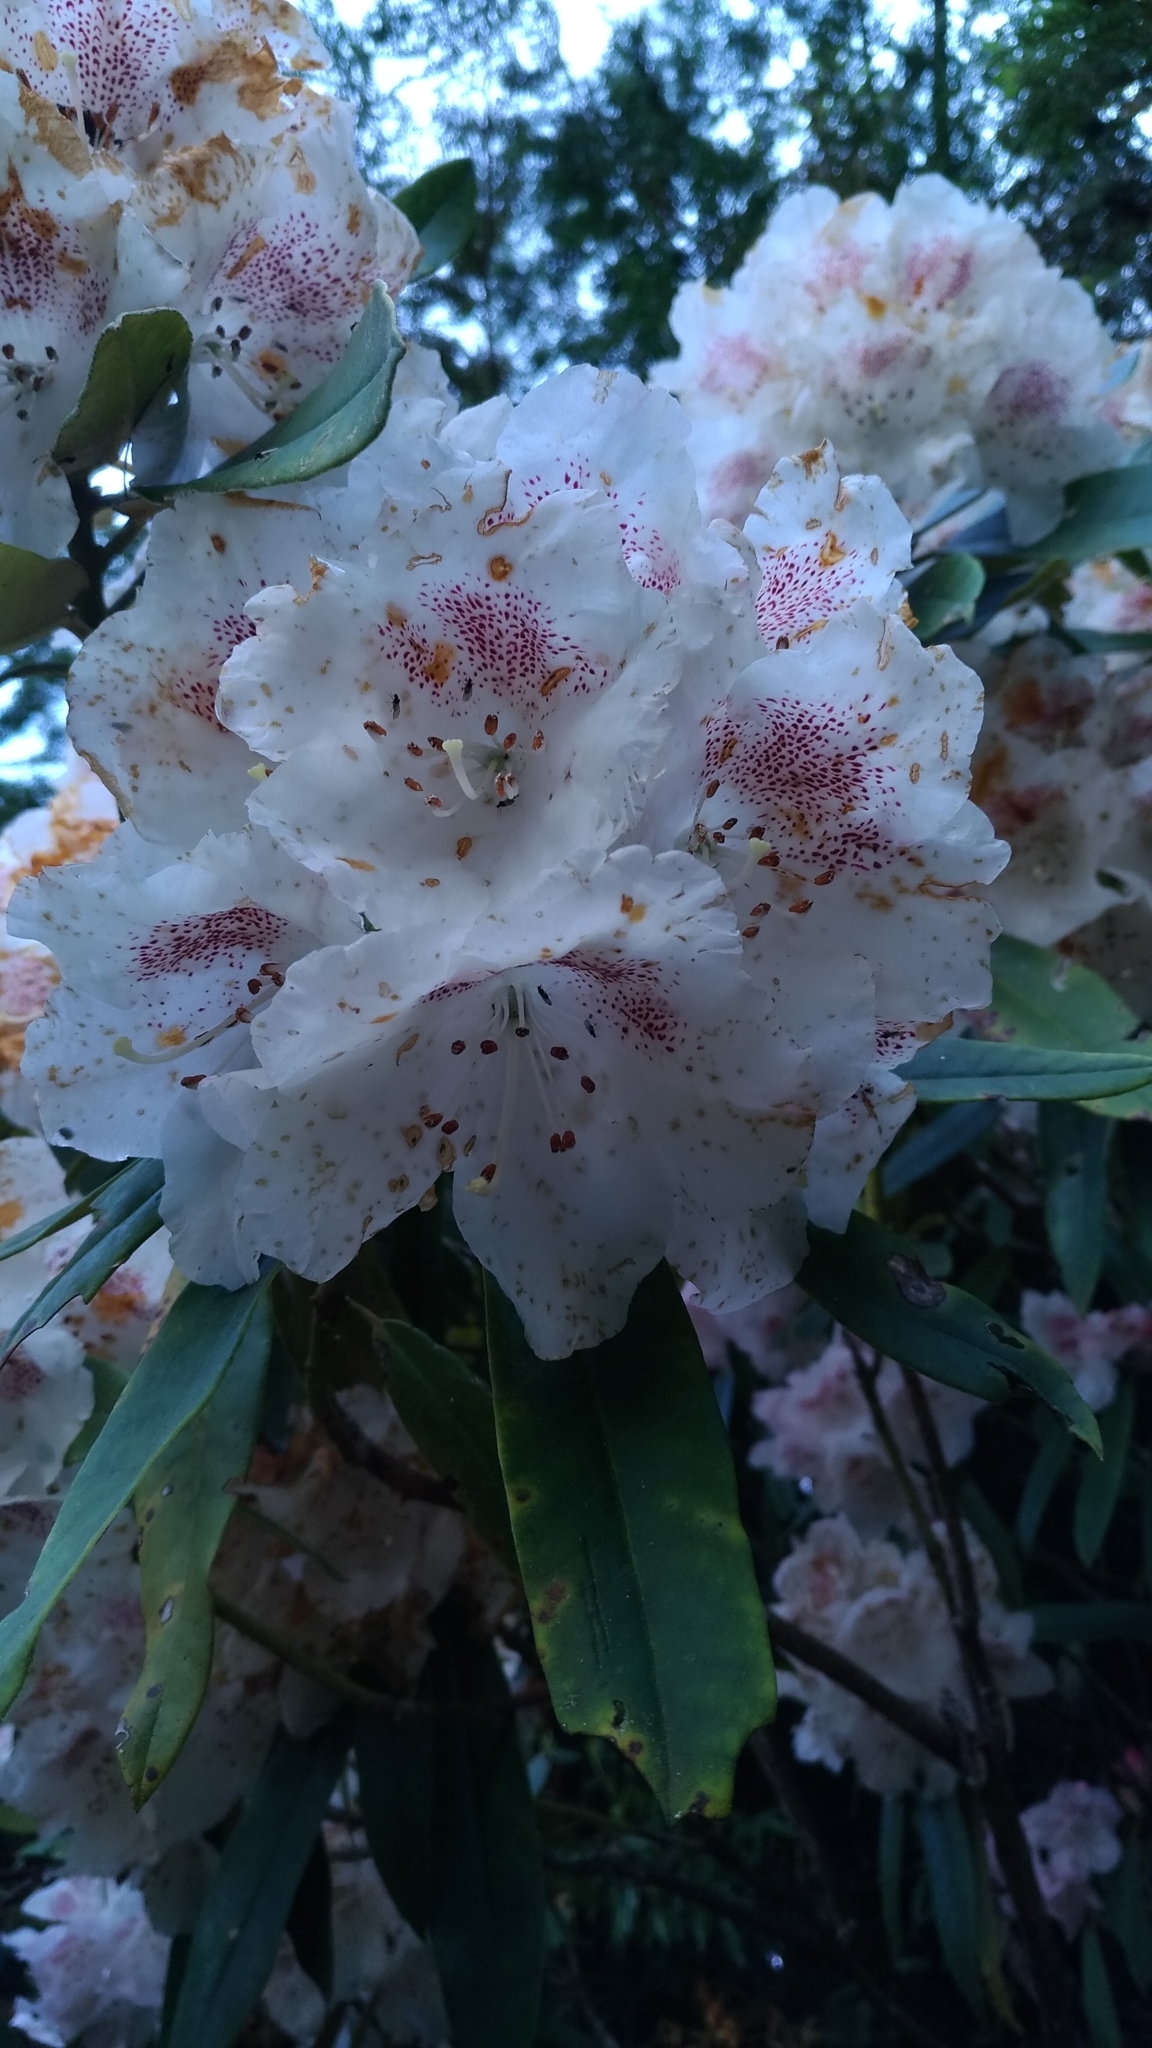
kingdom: Plantae
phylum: Tracheophyta
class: Magnoliopsida
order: Ericales
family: Ericaceae
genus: Rhododendron
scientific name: Rhododendron formosanum
